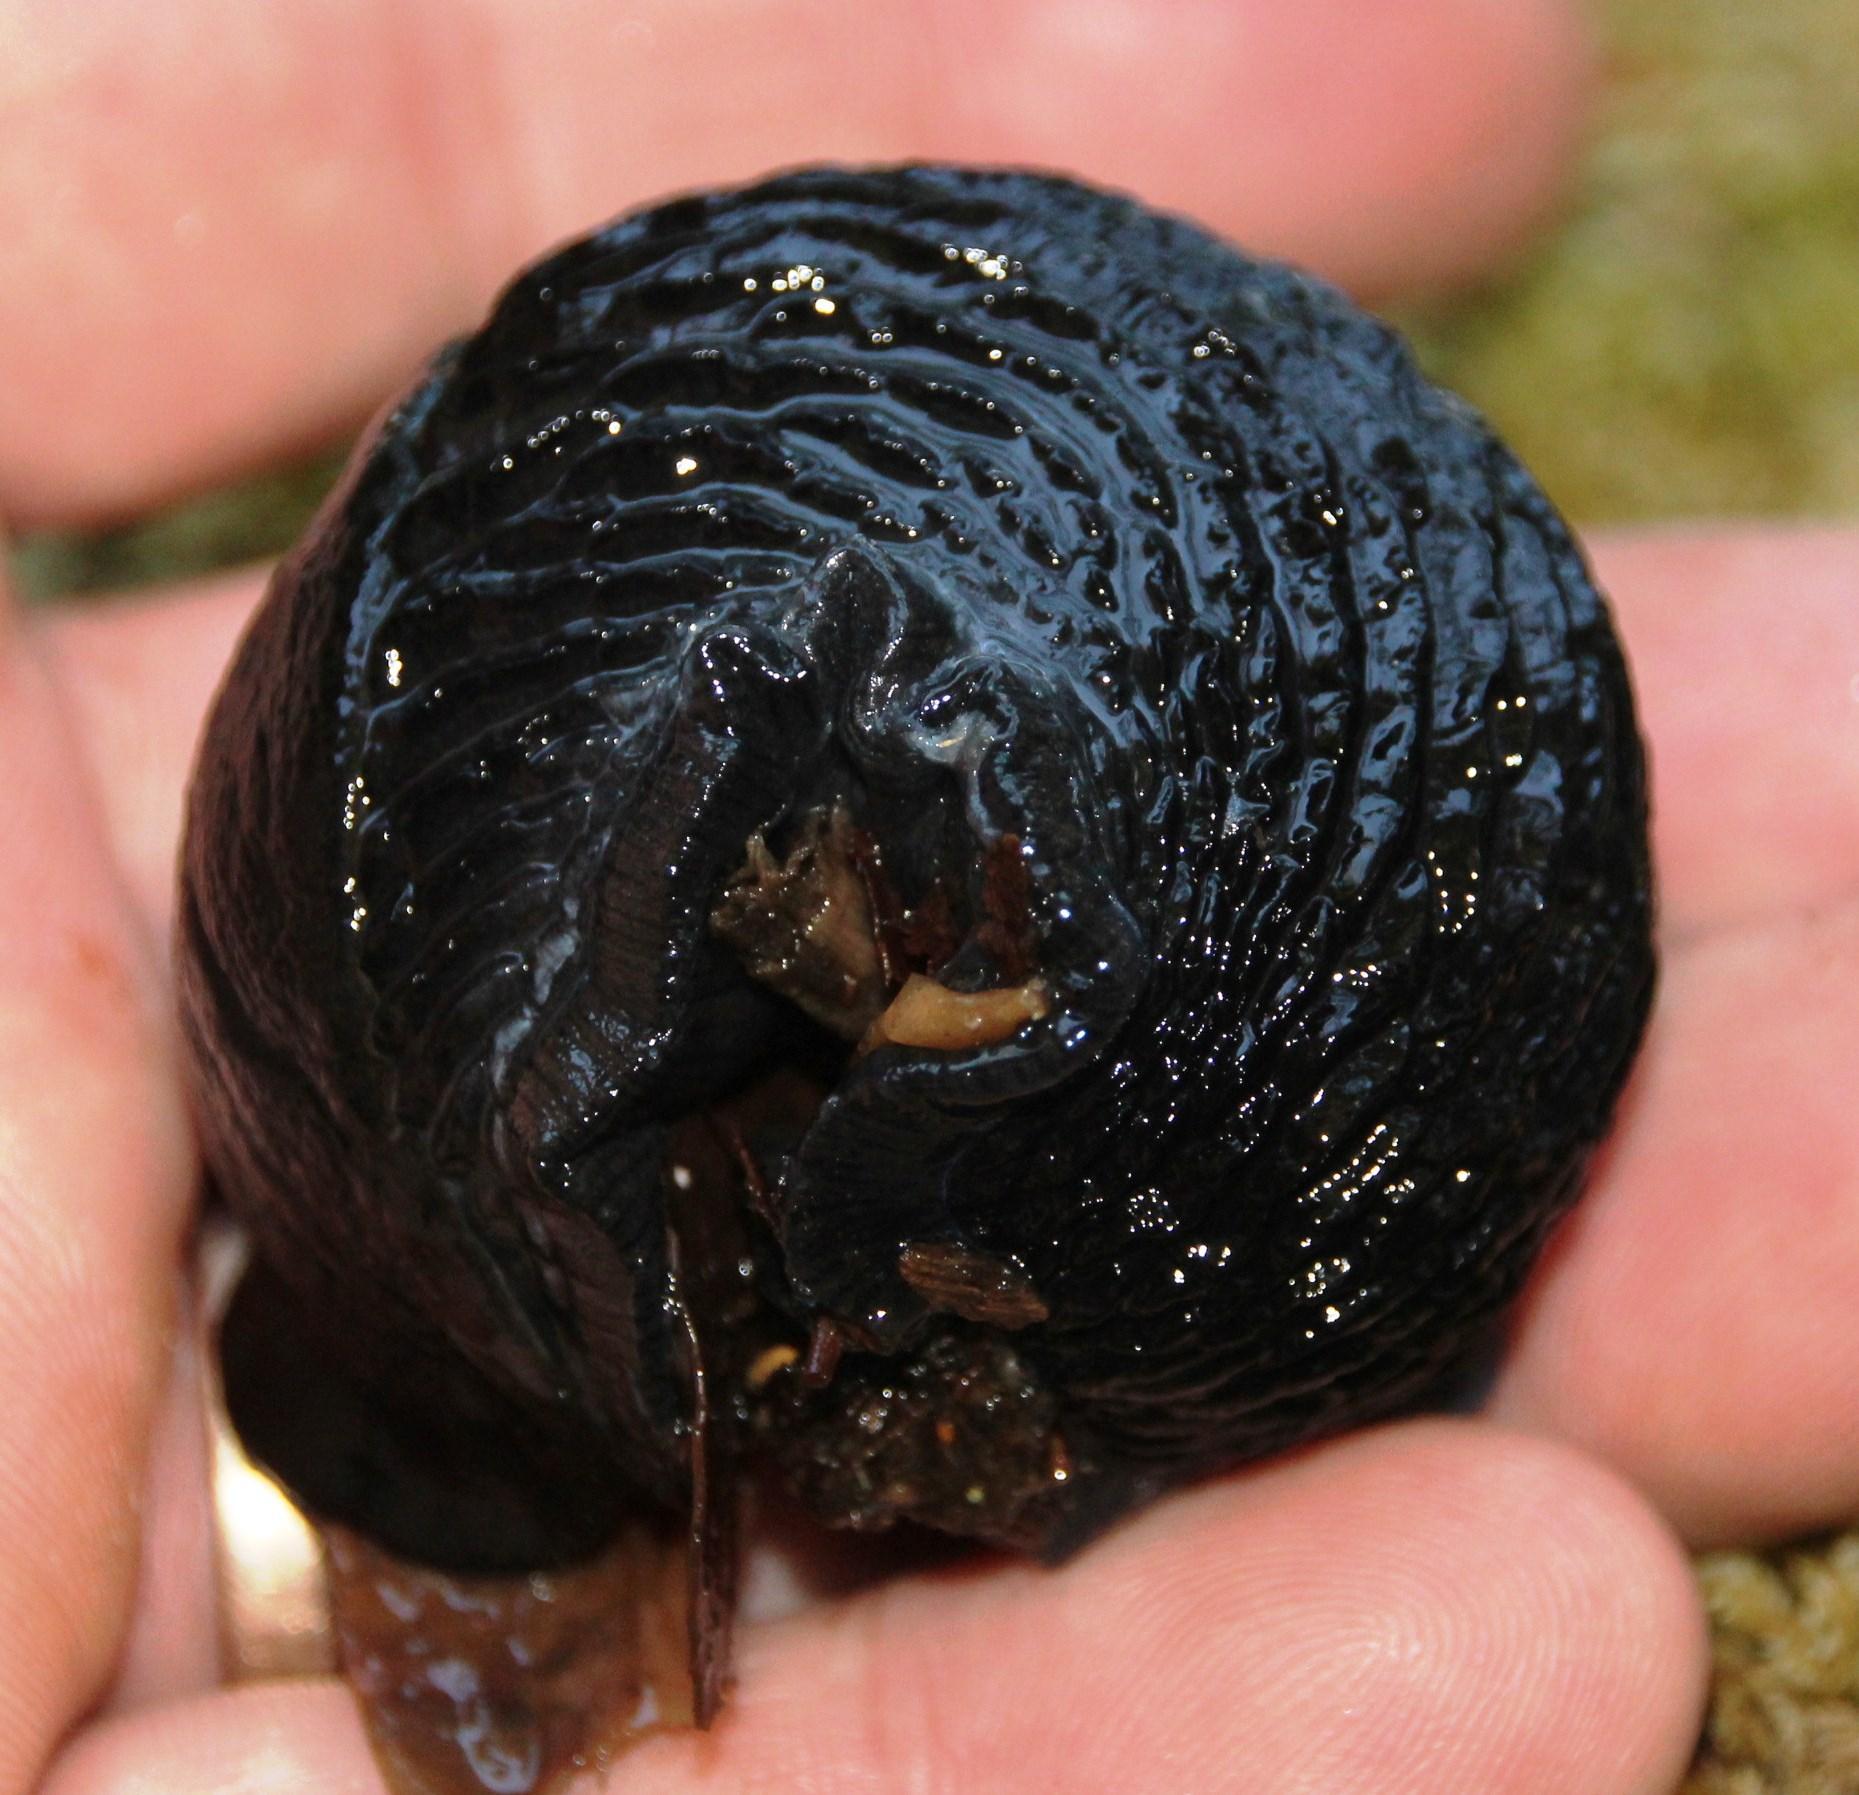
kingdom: Animalia
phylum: Mollusca
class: Gastropoda
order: Stylommatophora
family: Arionidae
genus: Arion
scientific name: Arion ater
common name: Black arion
